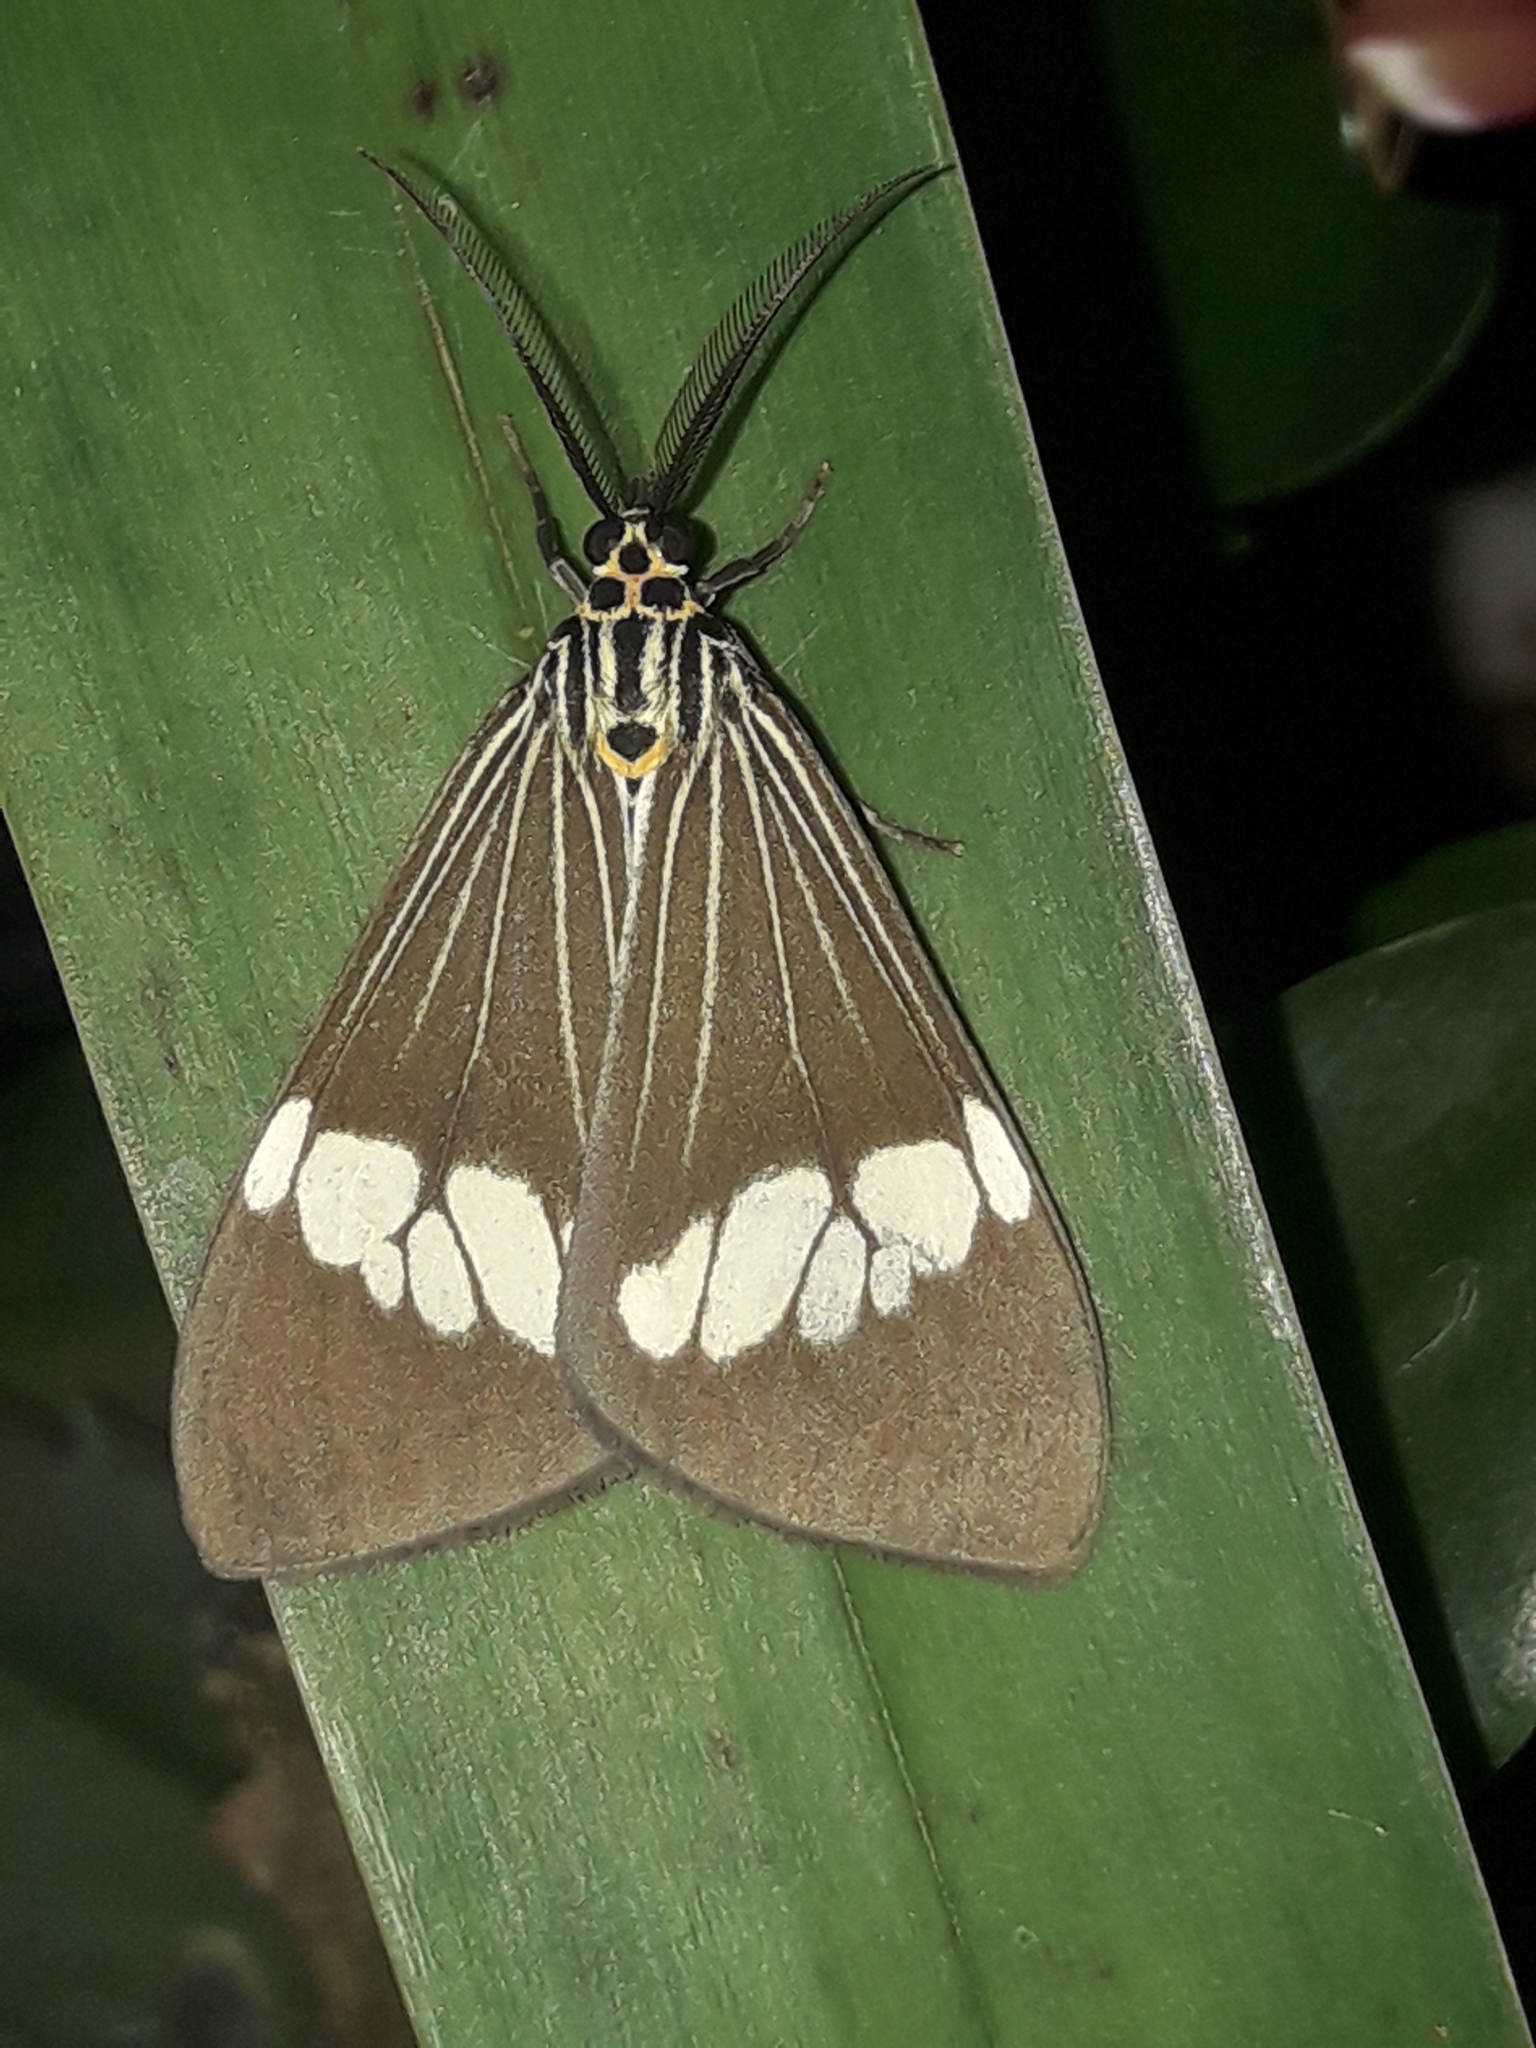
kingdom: Animalia
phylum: Arthropoda
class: Insecta
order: Lepidoptera
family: Erebidae
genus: Nyctemera
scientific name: Nyctemera baulus
